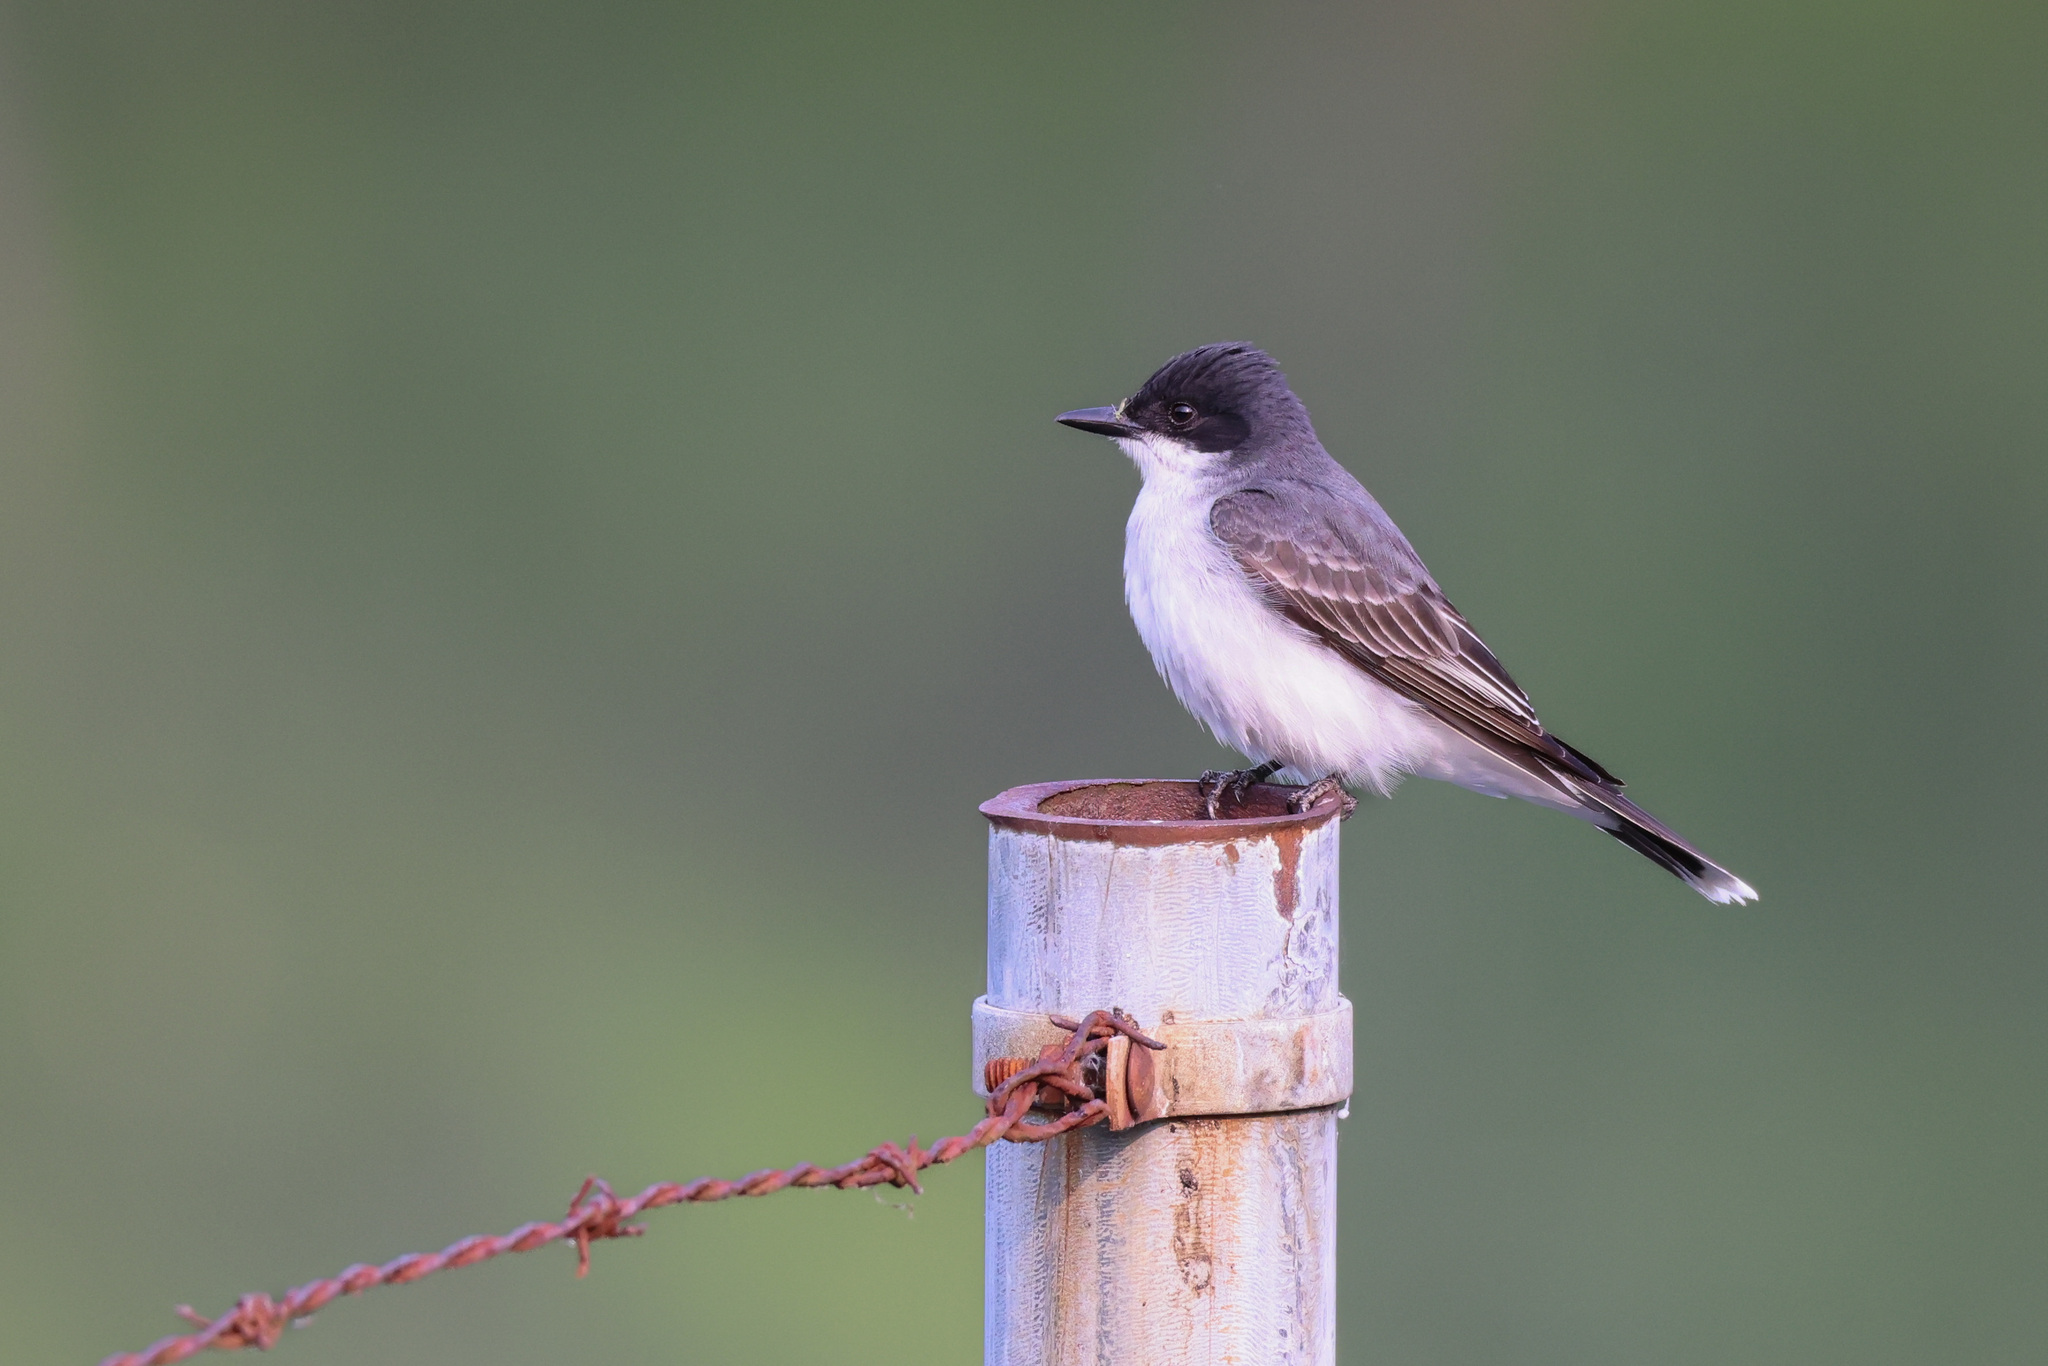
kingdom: Animalia
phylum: Chordata
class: Aves
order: Passeriformes
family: Tyrannidae
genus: Tyrannus
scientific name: Tyrannus tyrannus
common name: Eastern kingbird
